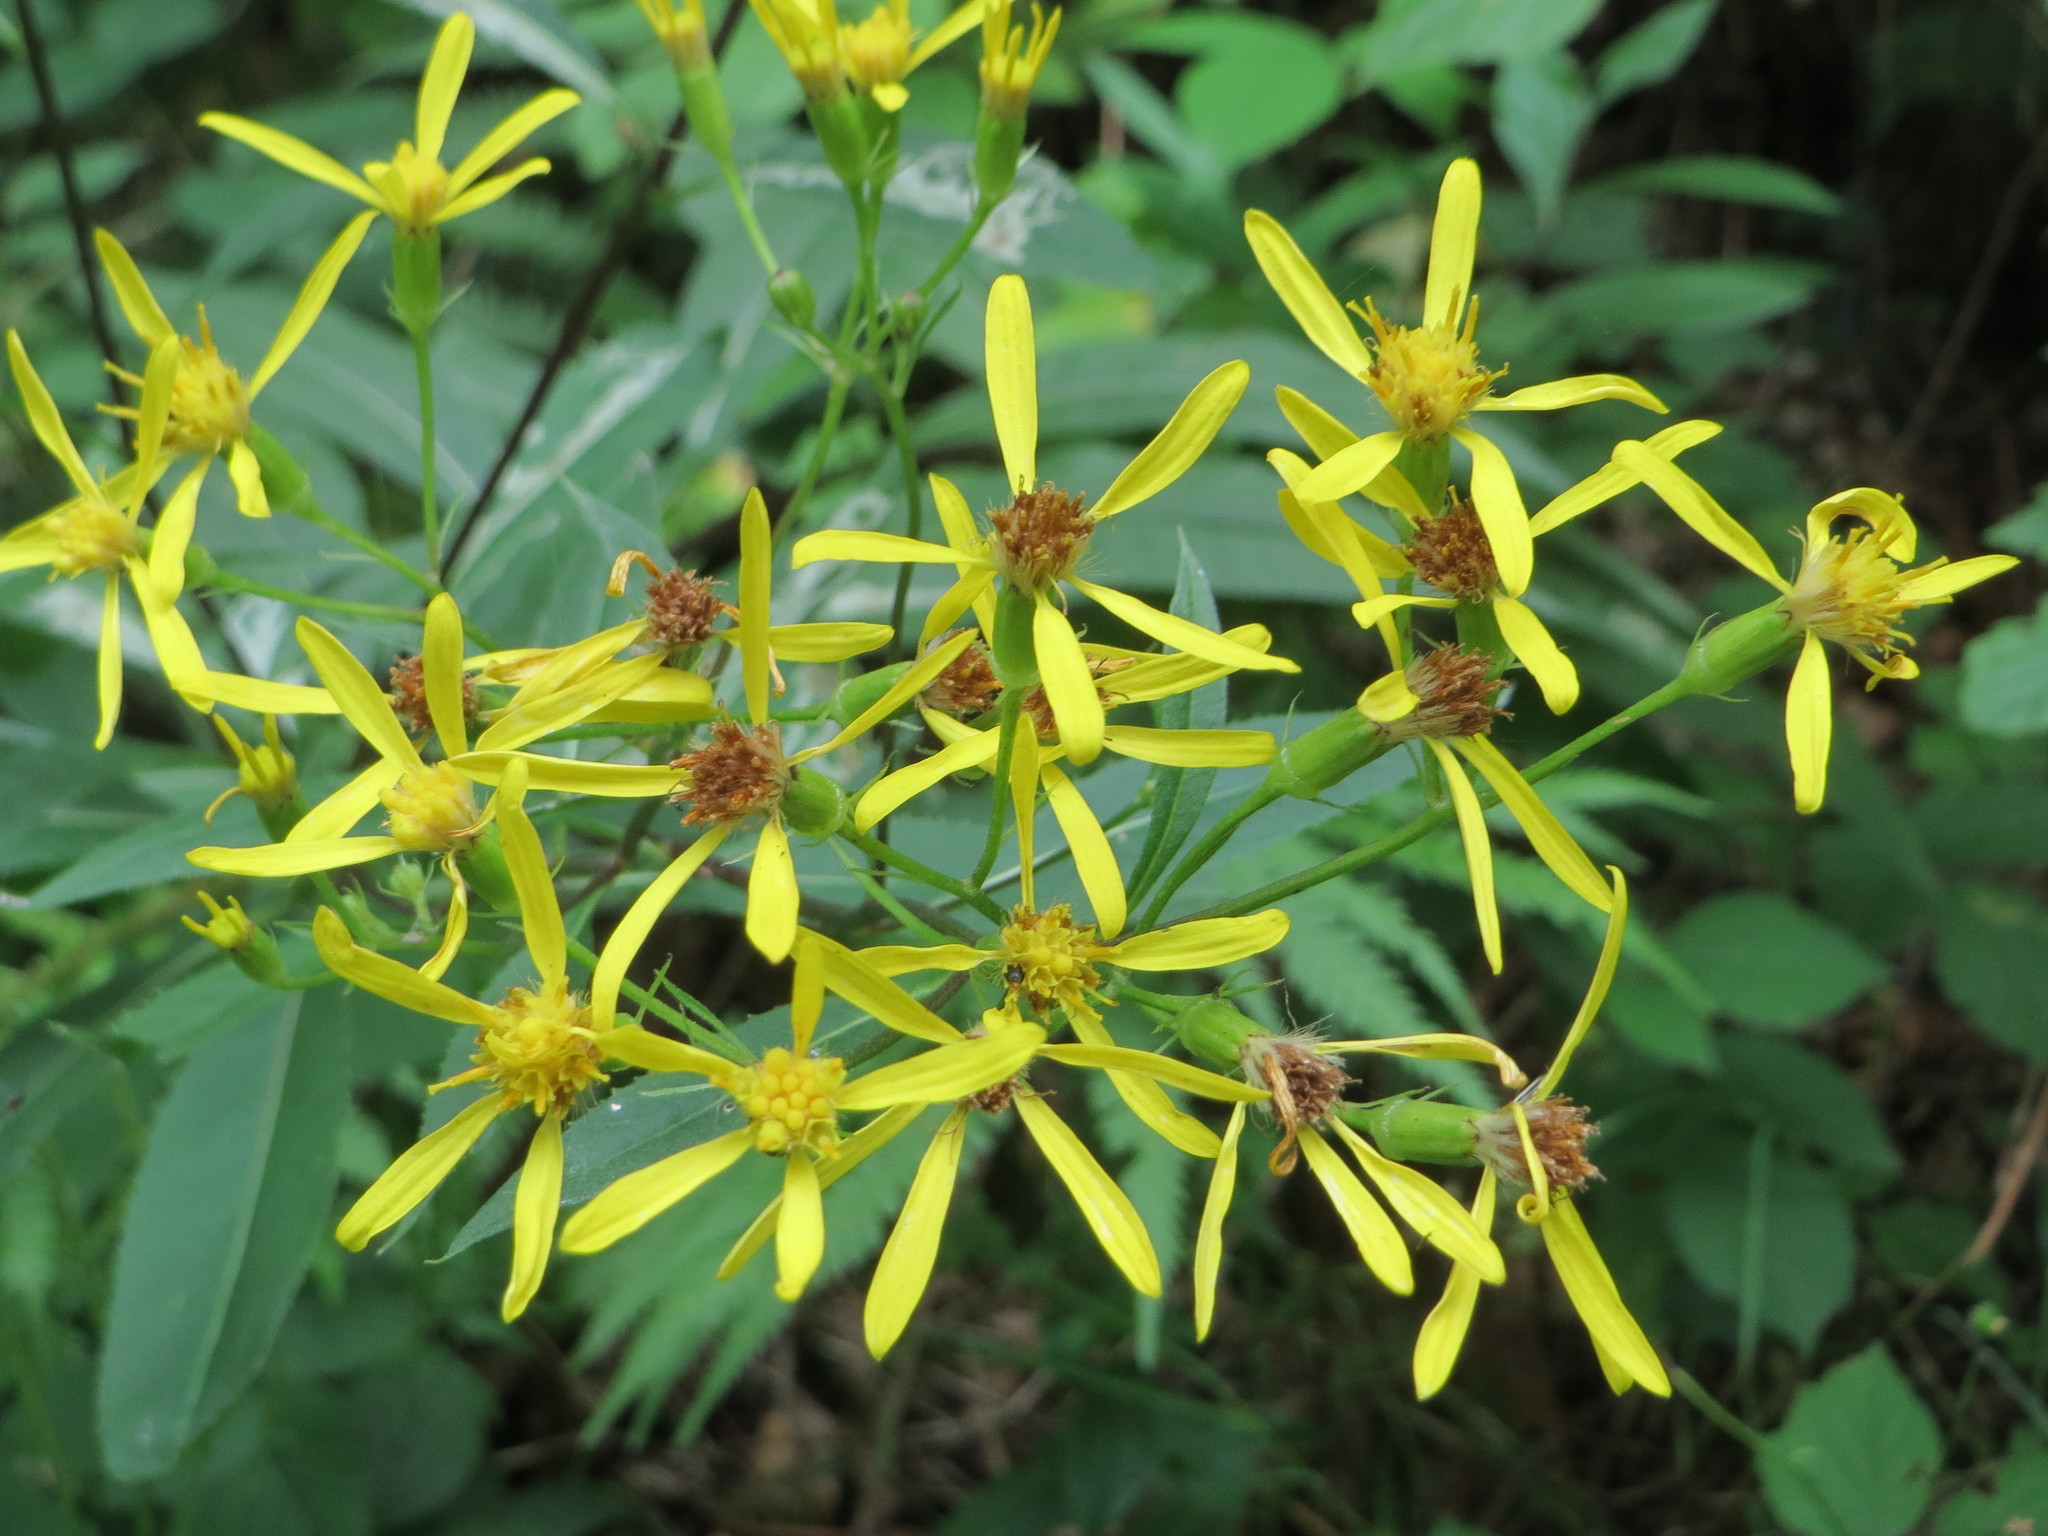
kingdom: Plantae
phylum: Tracheophyta
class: Magnoliopsida
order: Asterales
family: Asteraceae
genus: Senecio
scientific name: Senecio ovatus
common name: Wood ragwort
